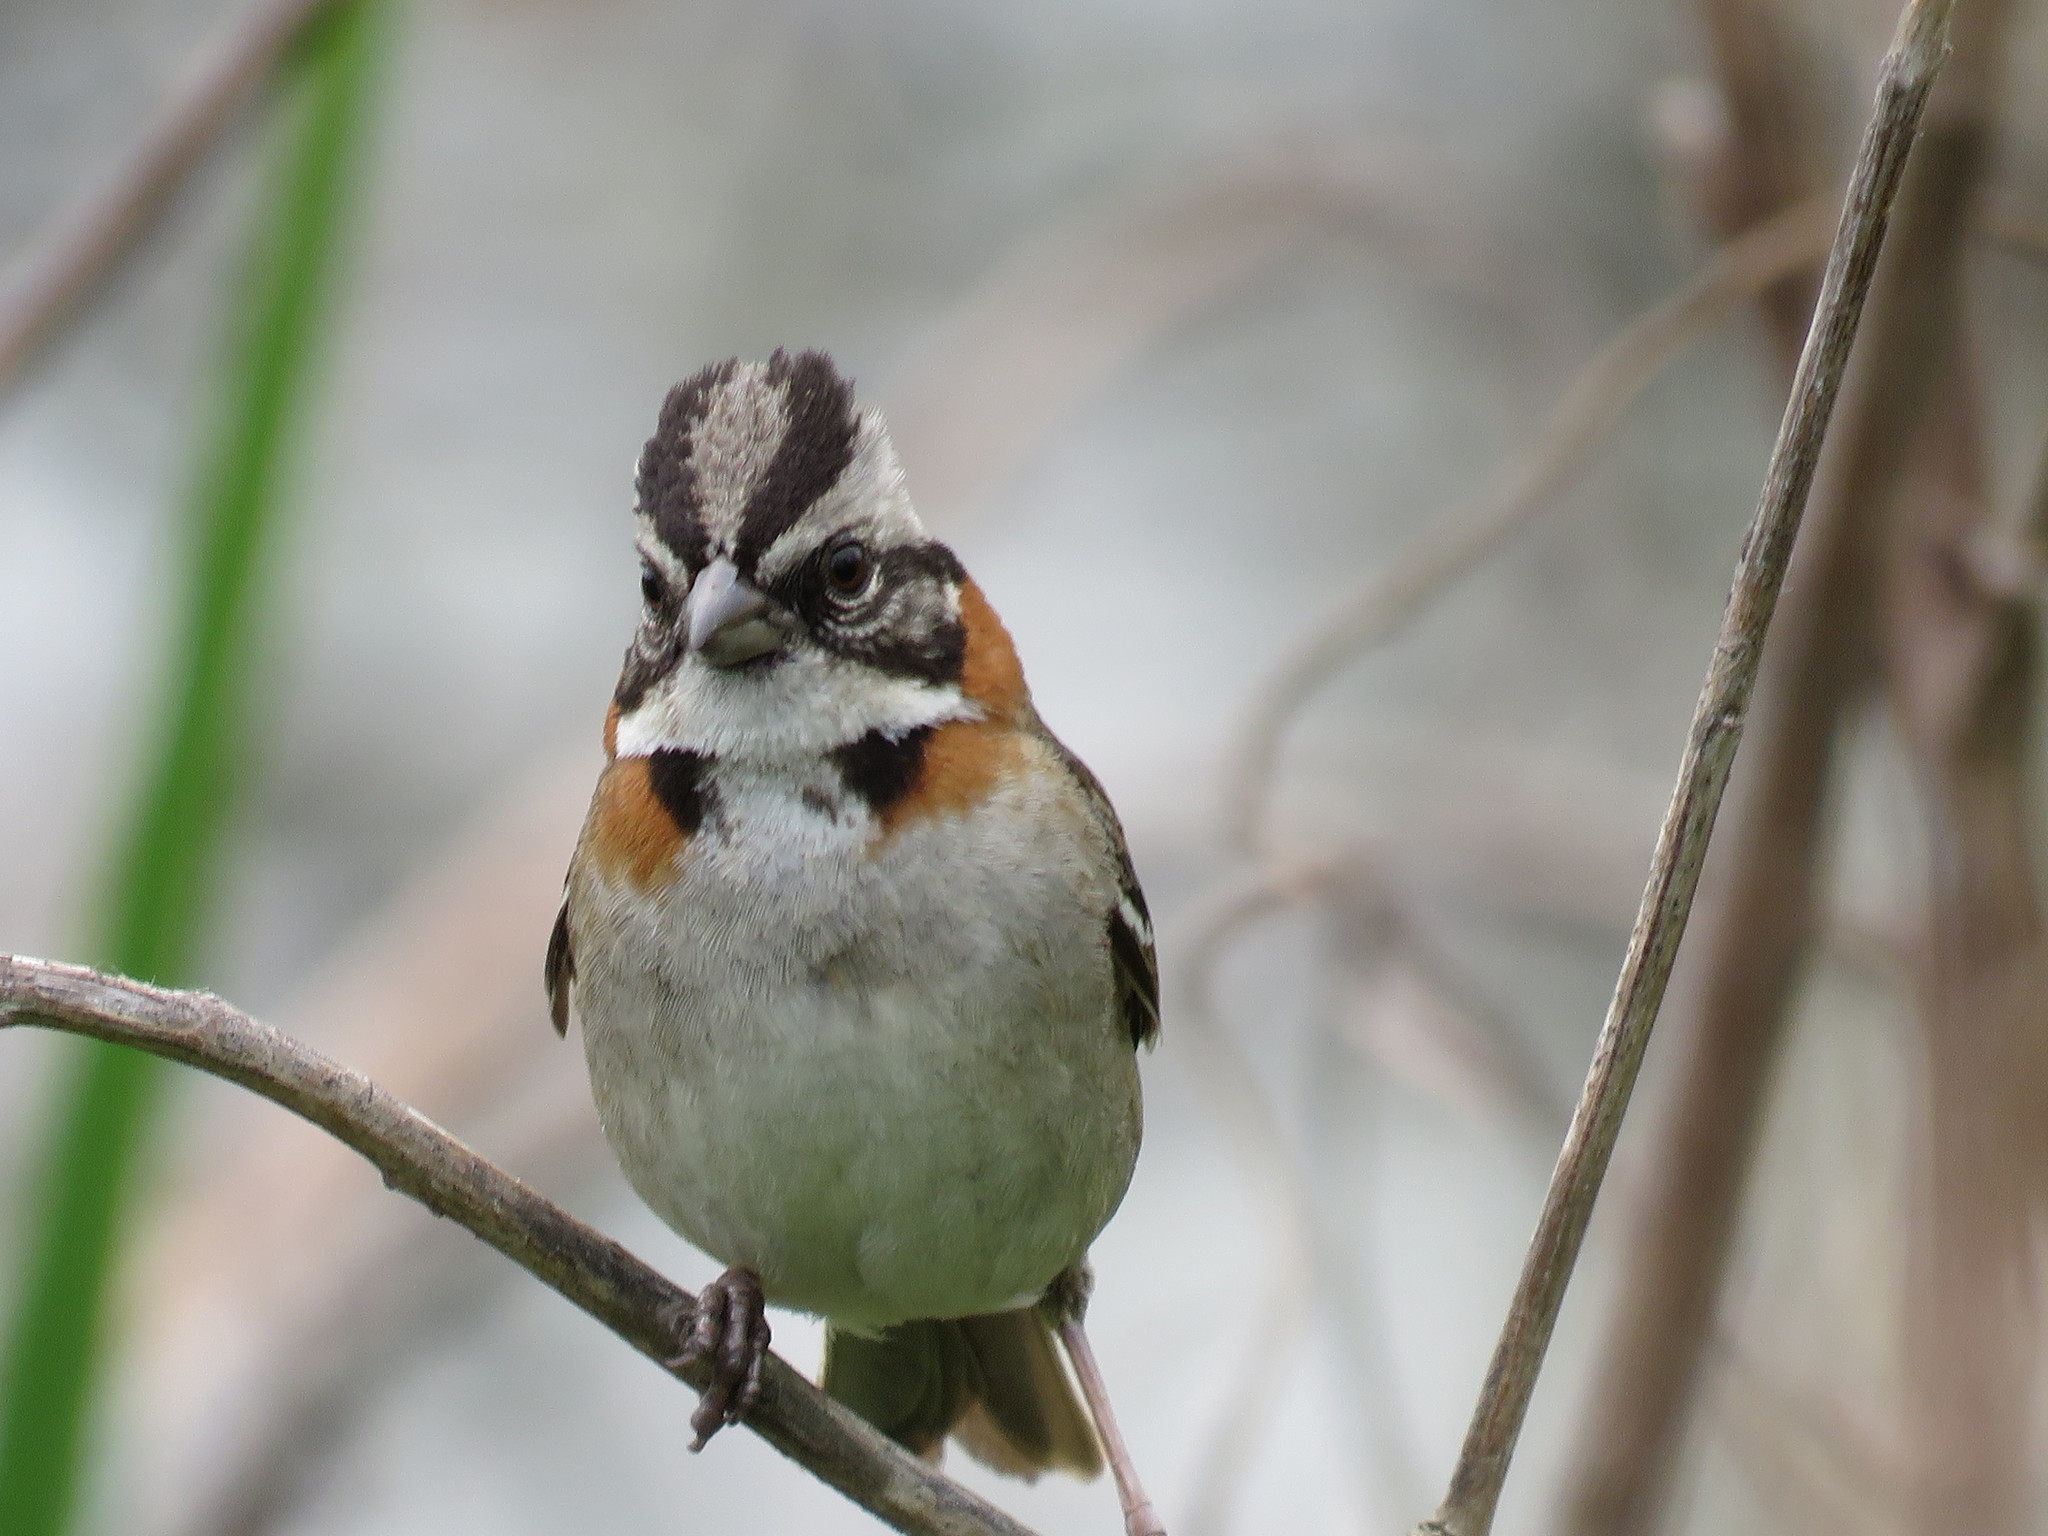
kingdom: Animalia
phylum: Chordata
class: Aves
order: Passeriformes
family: Passerellidae
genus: Zonotrichia
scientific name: Zonotrichia capensis
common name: Rufous-collared sparrow
